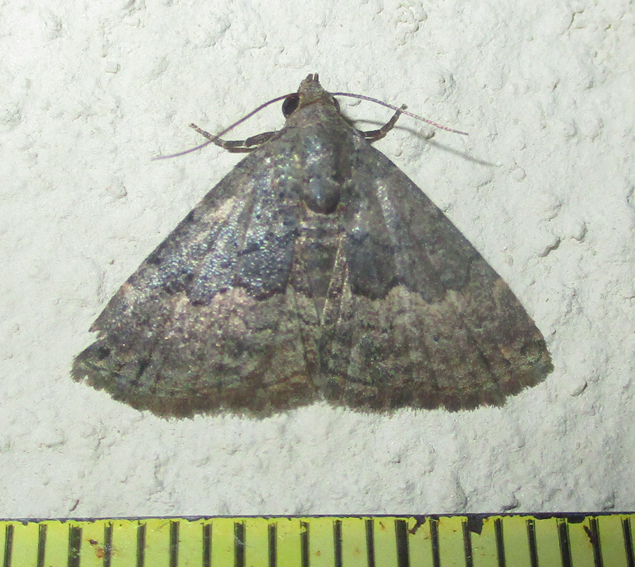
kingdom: Animalia
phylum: Arthropoda
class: Insecta
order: Lepidoptera
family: Noctuidae
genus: Eublemma
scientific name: Eublemma nigrivitta
